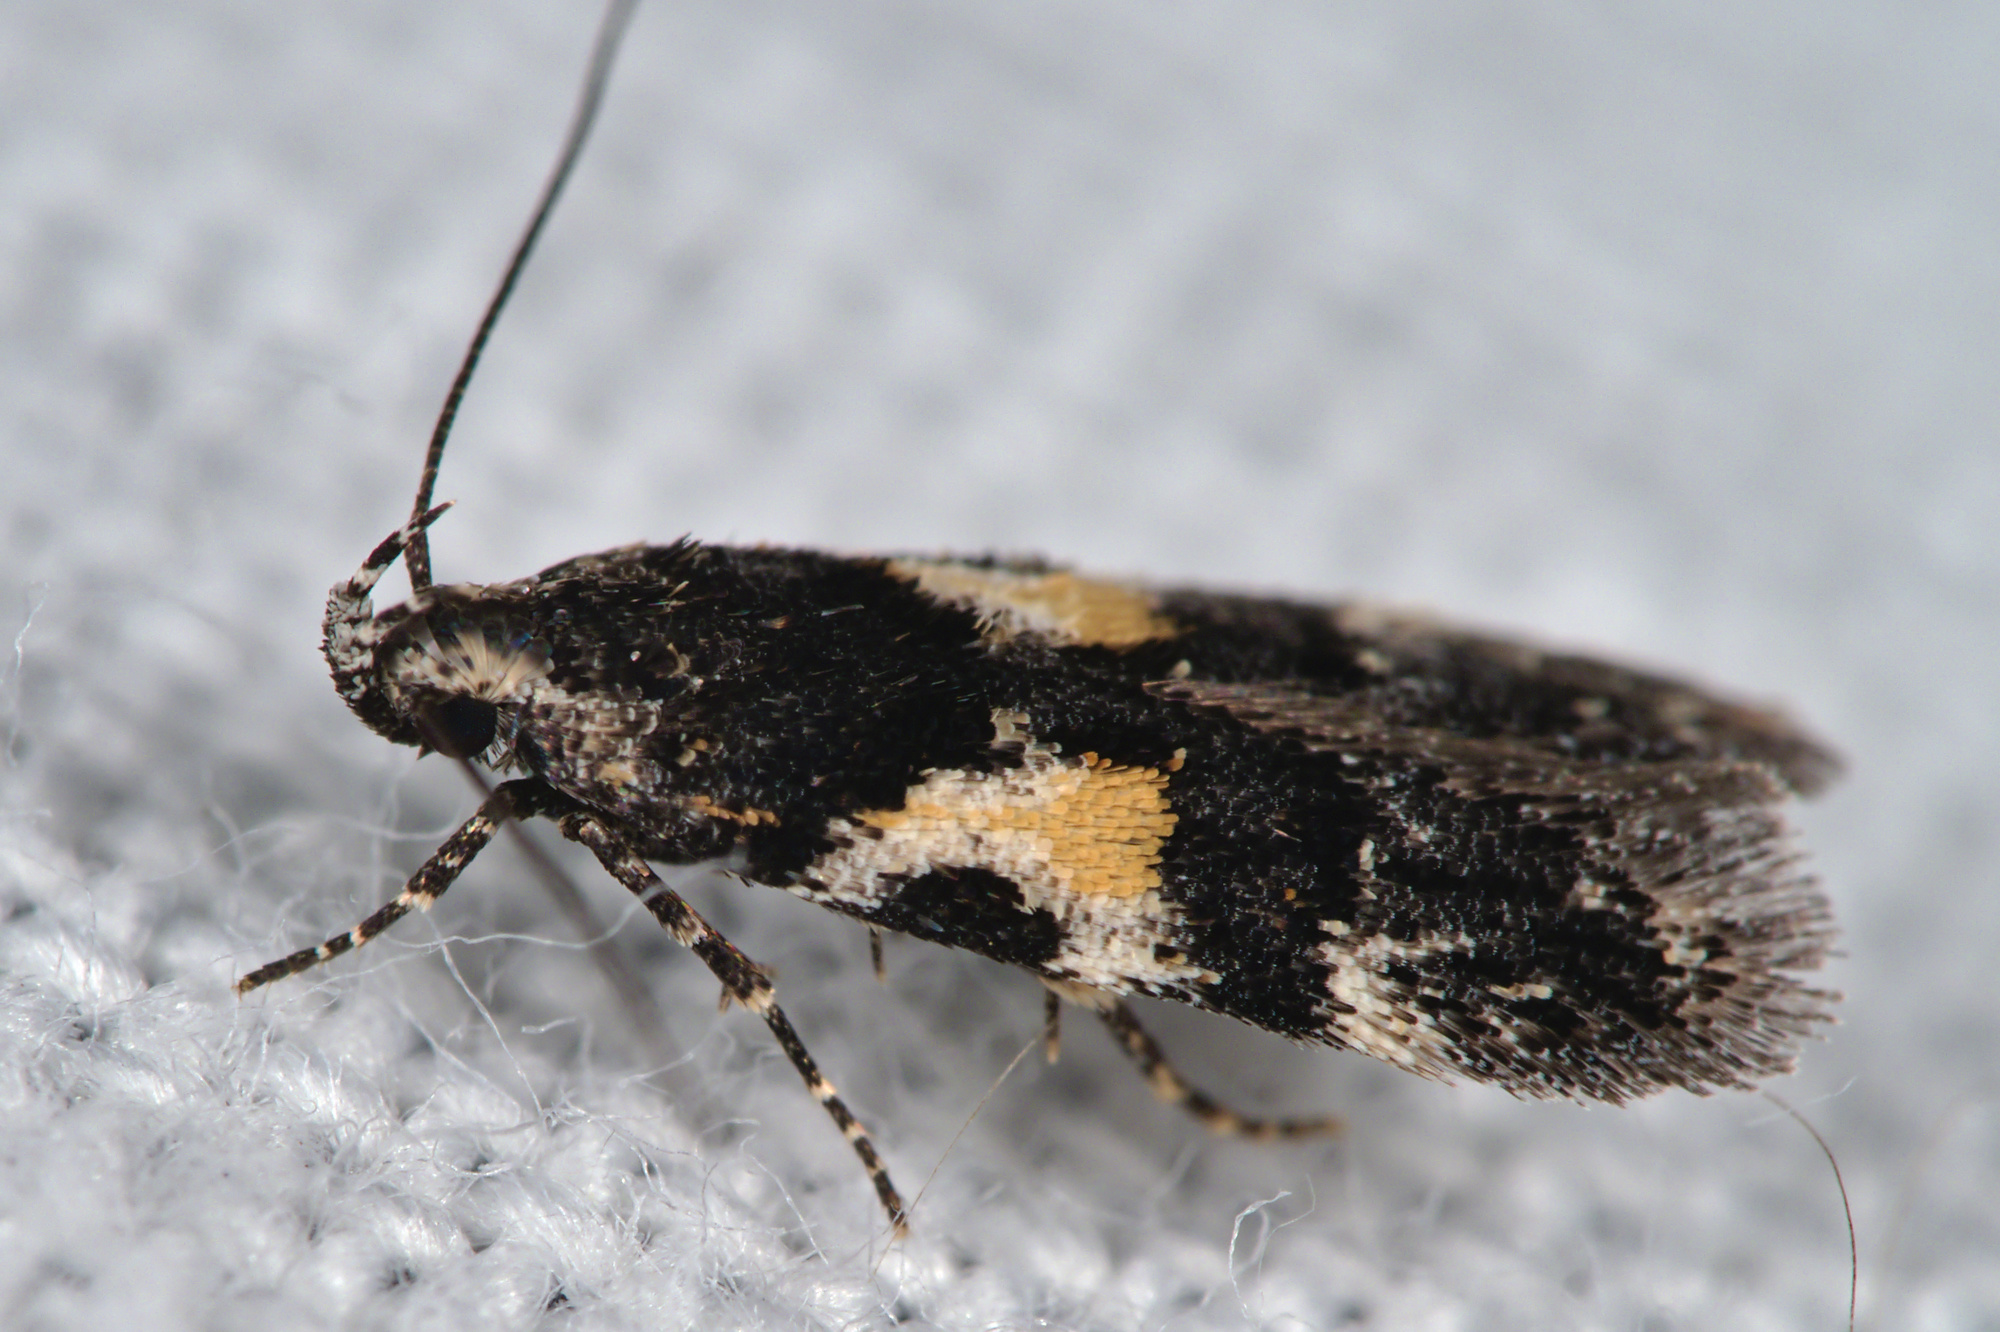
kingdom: Animalia
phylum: Arthropoda
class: Insecta
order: Lepidoptera
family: Gelechiidae
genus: Teleiodes
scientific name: Teleiodes luculella
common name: Crescent groundling
